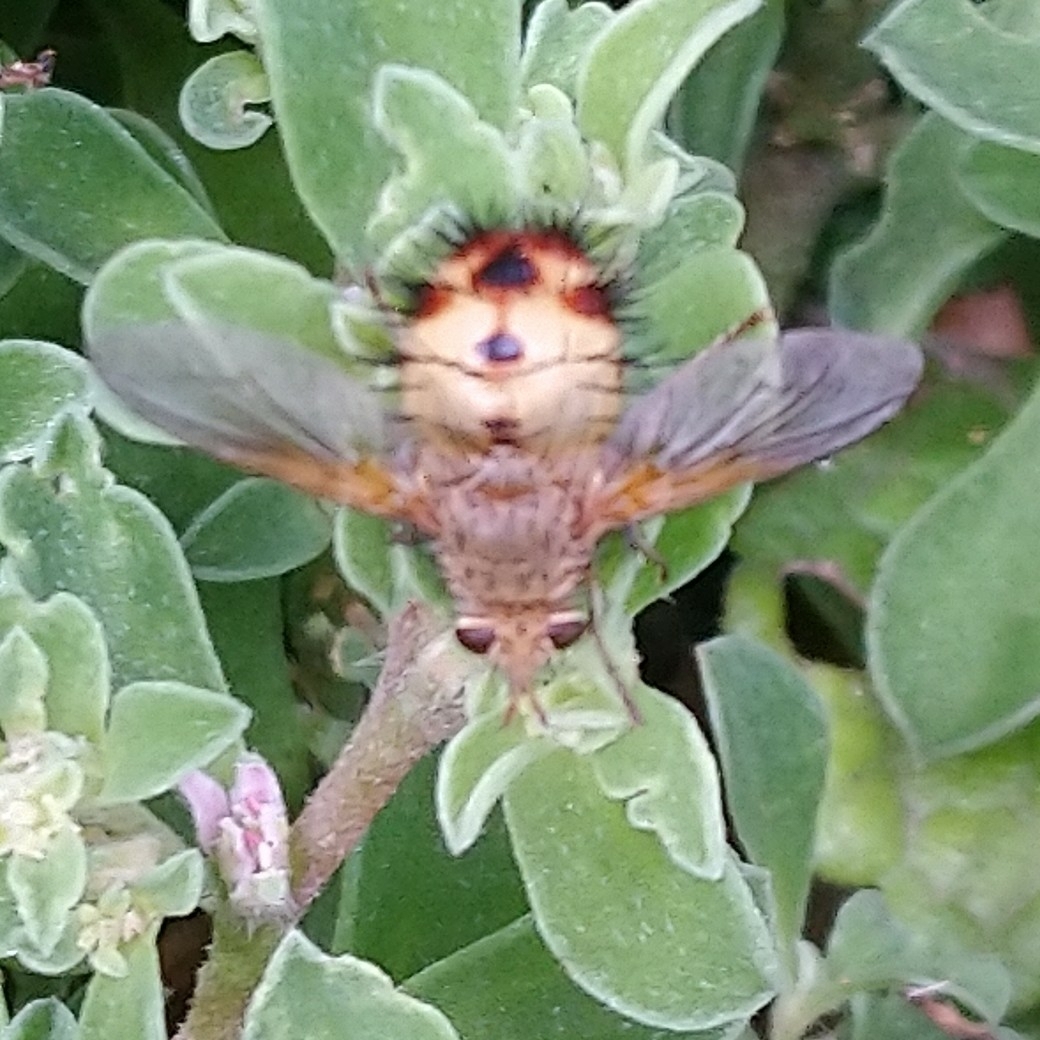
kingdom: Animalia
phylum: Arthropoda
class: Insecta
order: Diptera
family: Tachinidae
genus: Dejeania
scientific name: Dejeania bombylans
